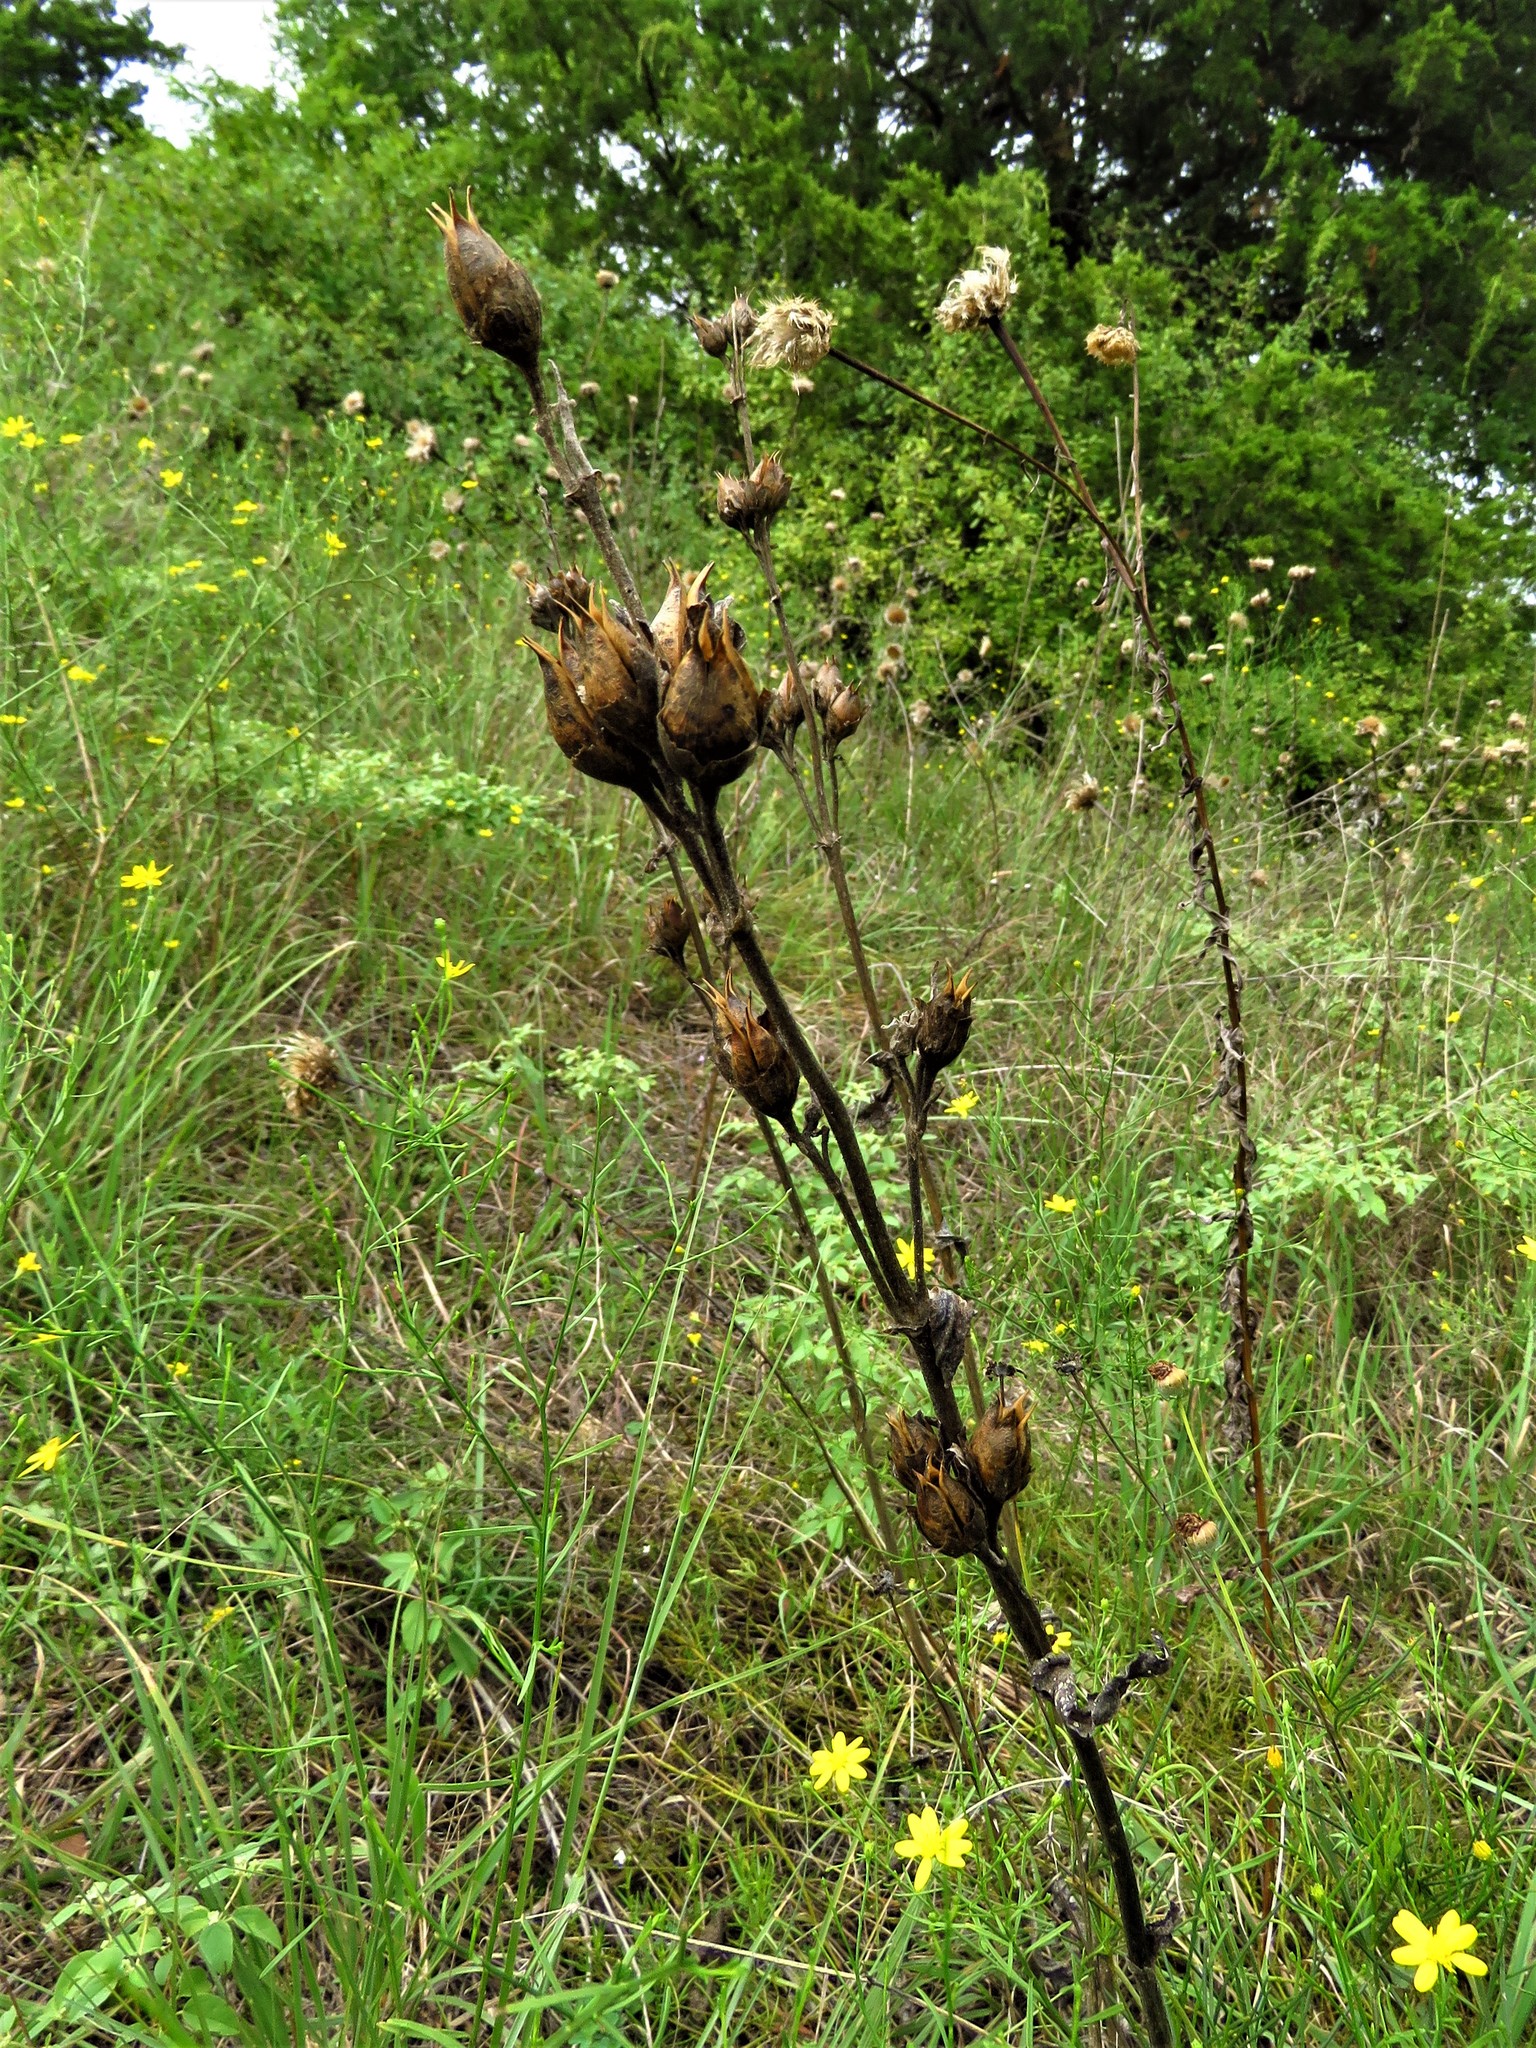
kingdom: Plantae
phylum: Tracheophyta
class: Magnoliopsida
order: Lamiales
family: Plantaginaceae
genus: Penstemon
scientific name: Penstemon cobaea
